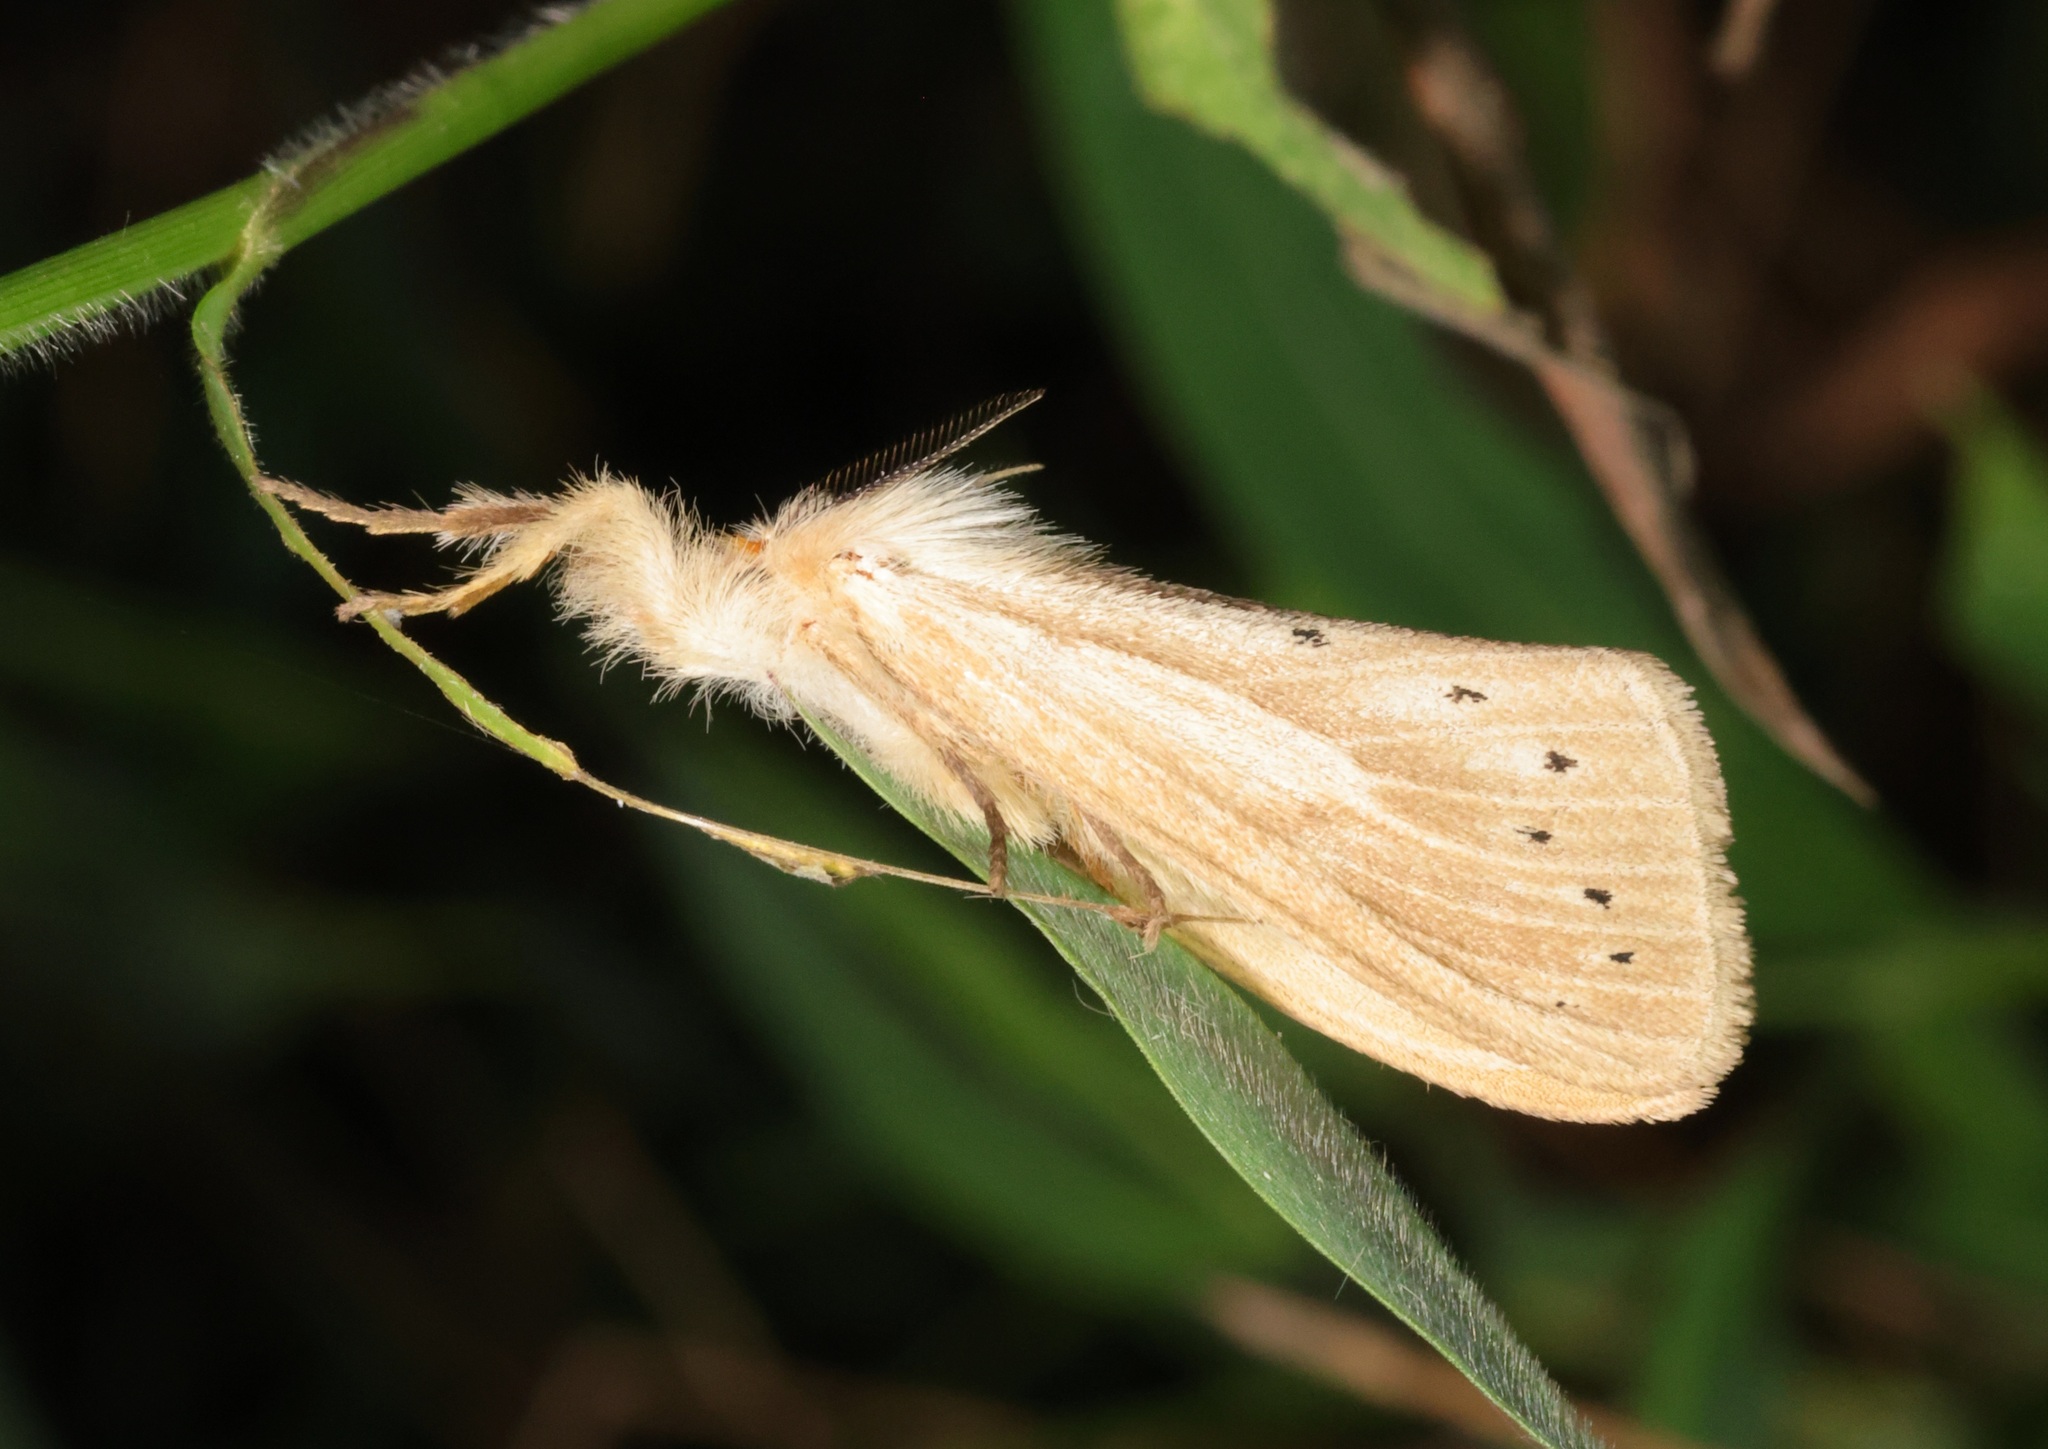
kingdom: Animalia
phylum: Arthropoda
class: Insecta
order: Lepidoptera
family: Erebidae
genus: Laelia
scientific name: Laelia anamesa
